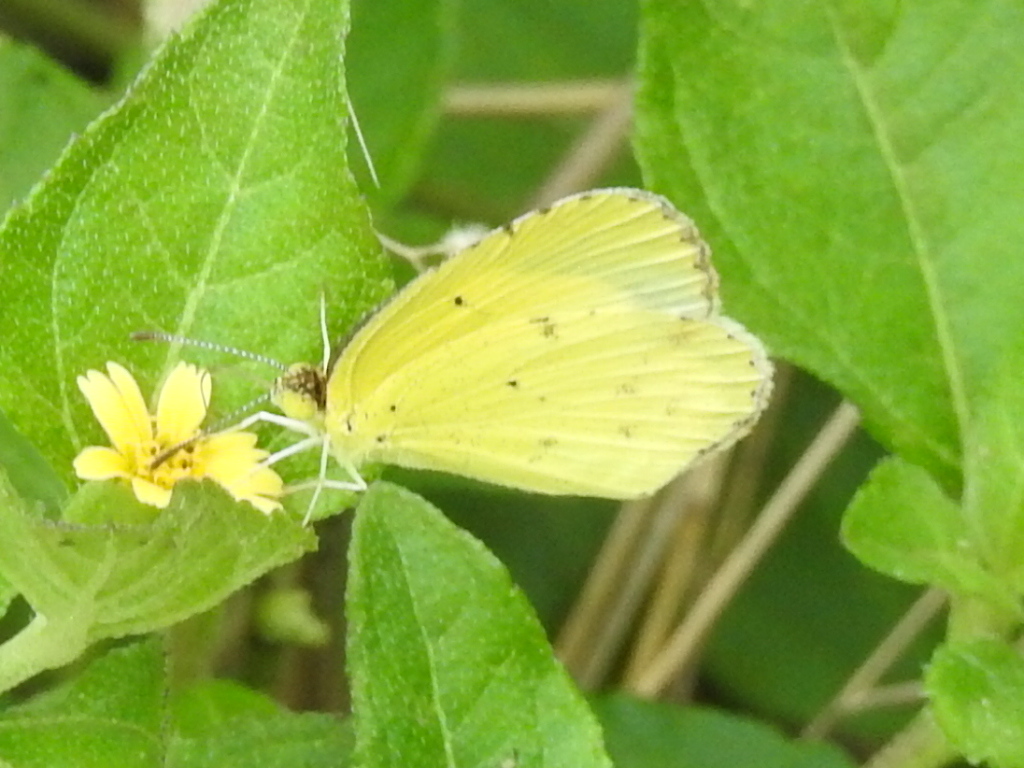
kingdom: Animalia
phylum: Arthropoda
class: Insecta
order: Lepidoptera
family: Pieridae
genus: Pyrisitia
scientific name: Pyrisitia lisa
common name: Little yellow
